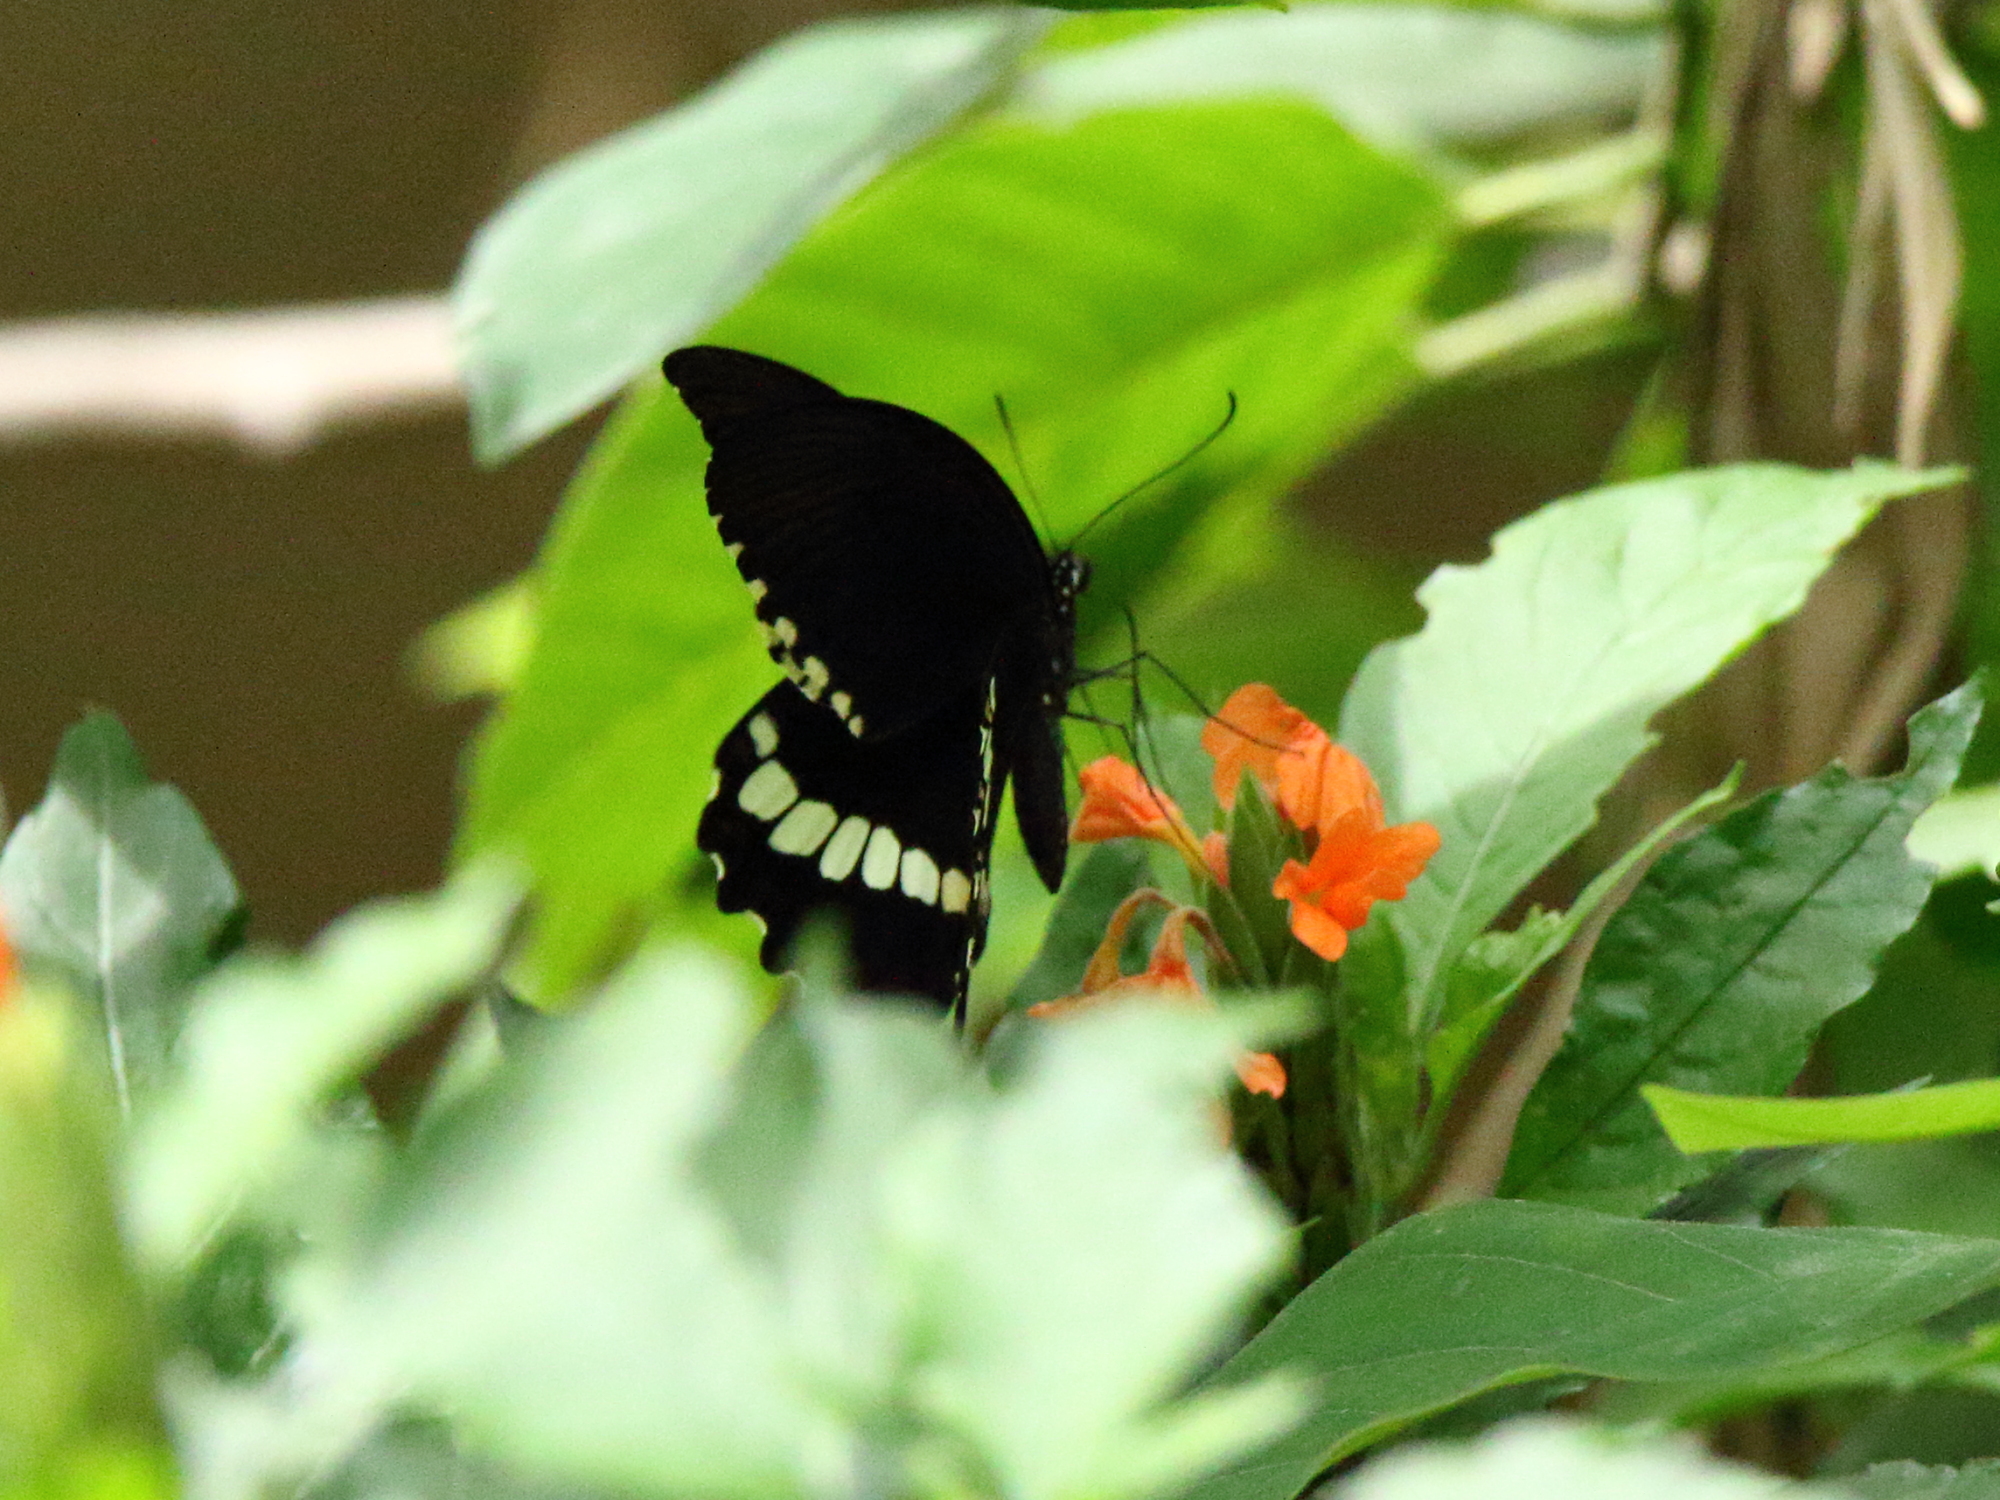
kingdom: Animalia
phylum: Arthropoda
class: Insecta
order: Lepidoptera
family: Papilionidae
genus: Papilio
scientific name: Papilio polytes
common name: Common mormon
